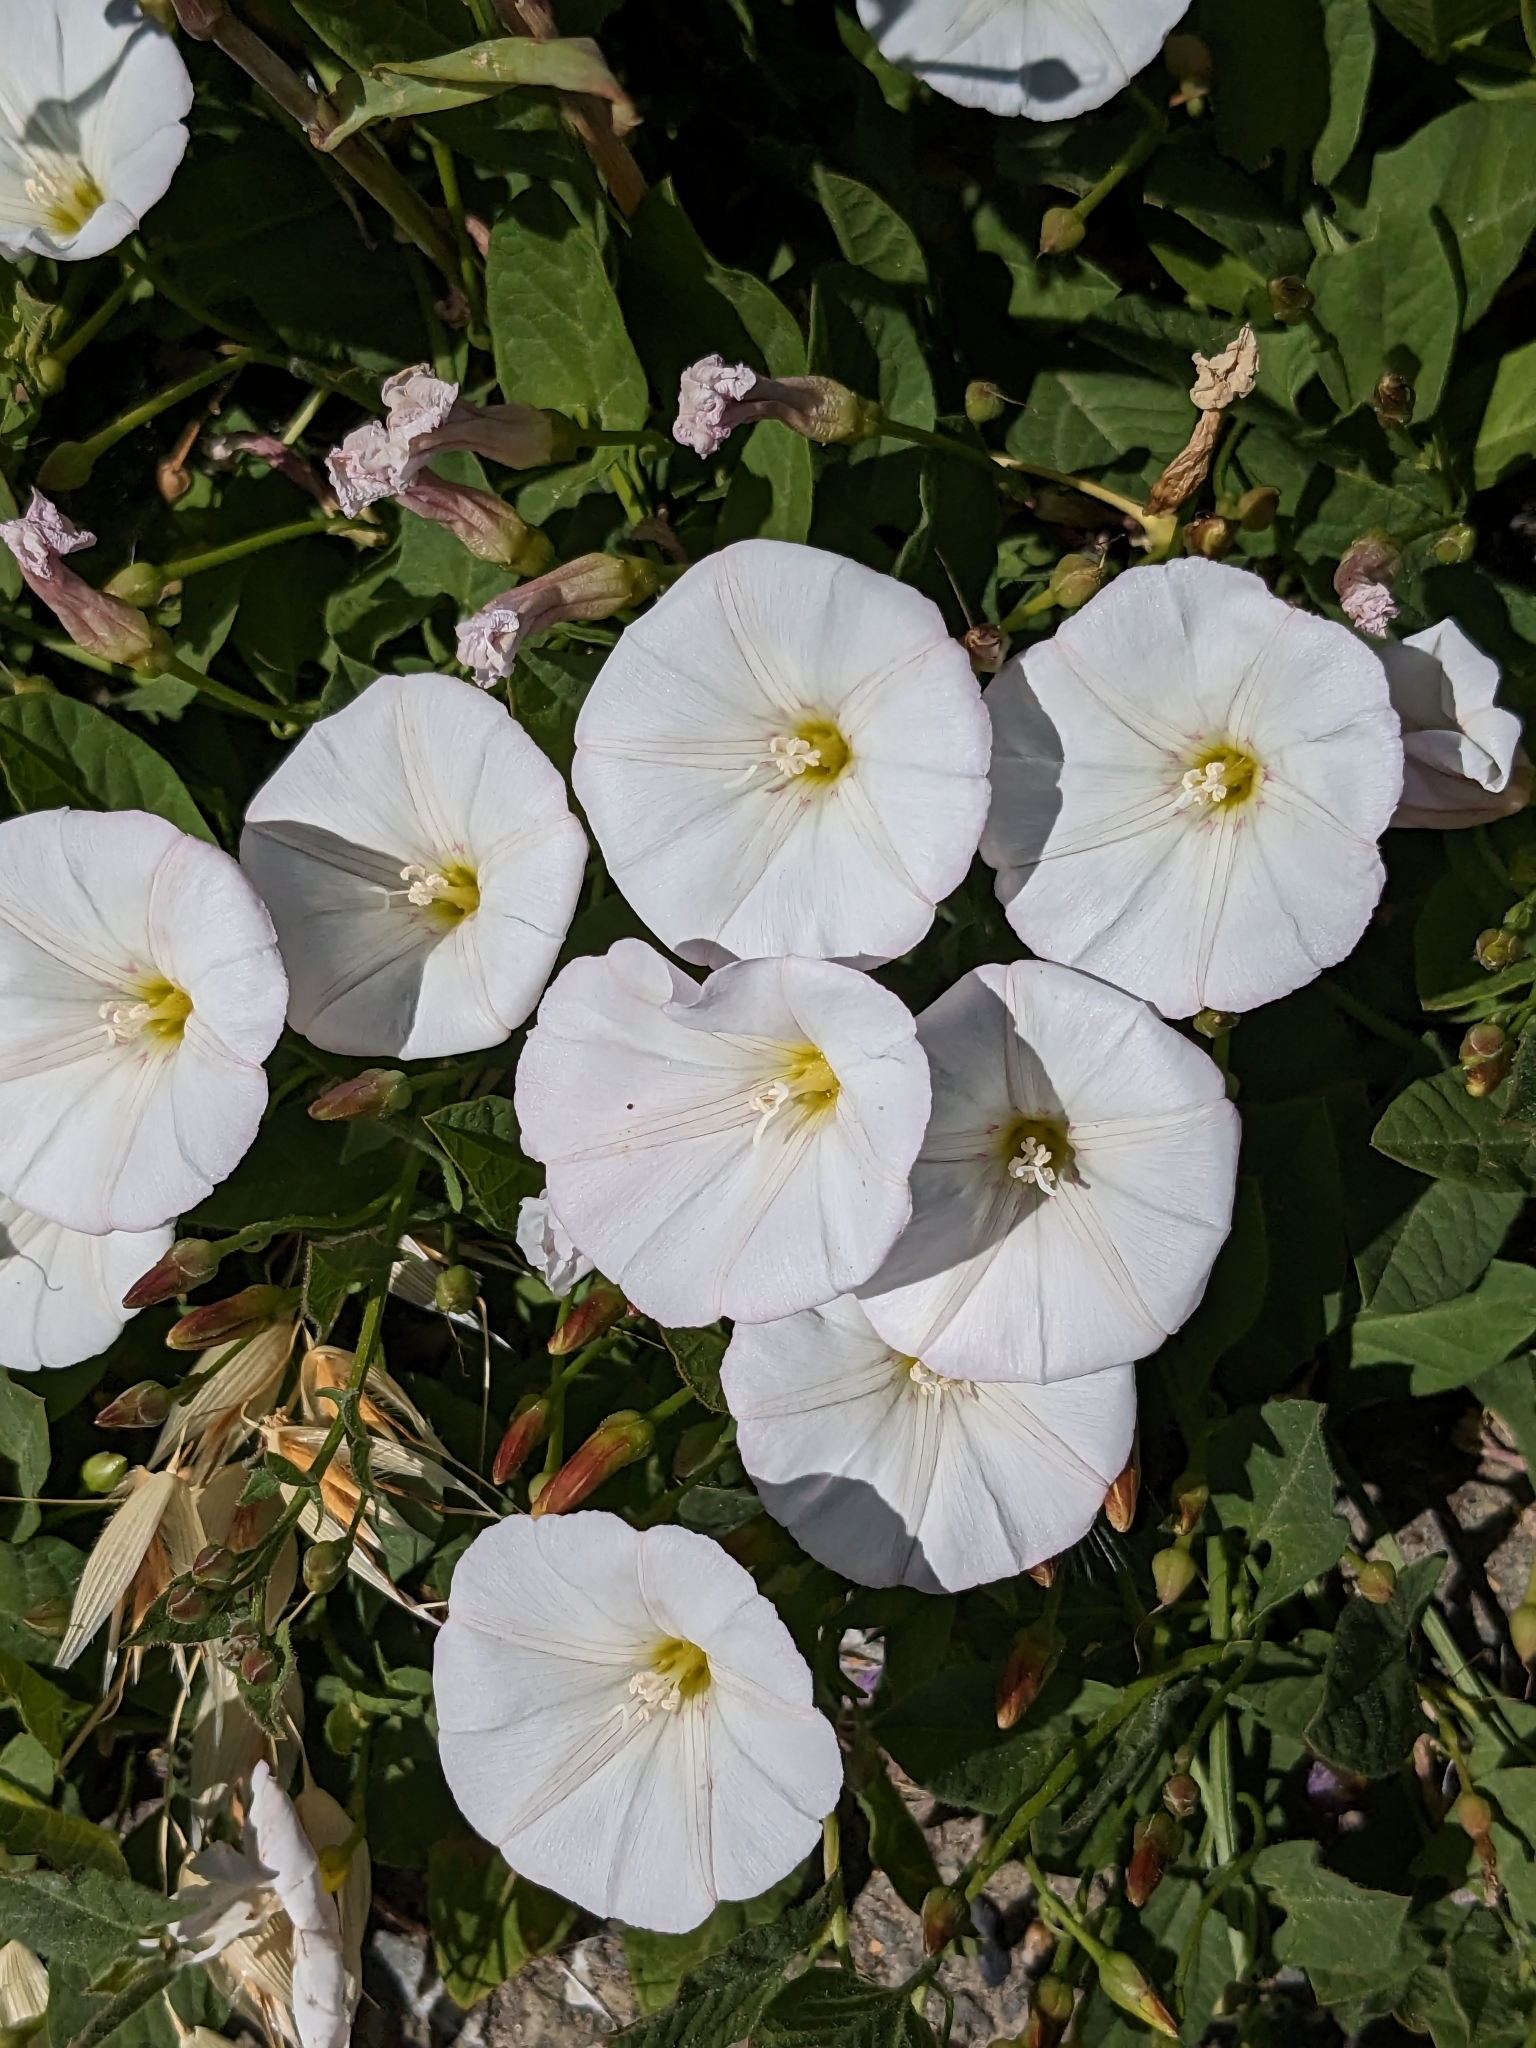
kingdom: Plantae
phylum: Tracheophyta
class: Magnoliopsida
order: Solanales
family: Convolvulaceae
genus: Convolvulus
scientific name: Convolvulus arvensis
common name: Field bindweed
